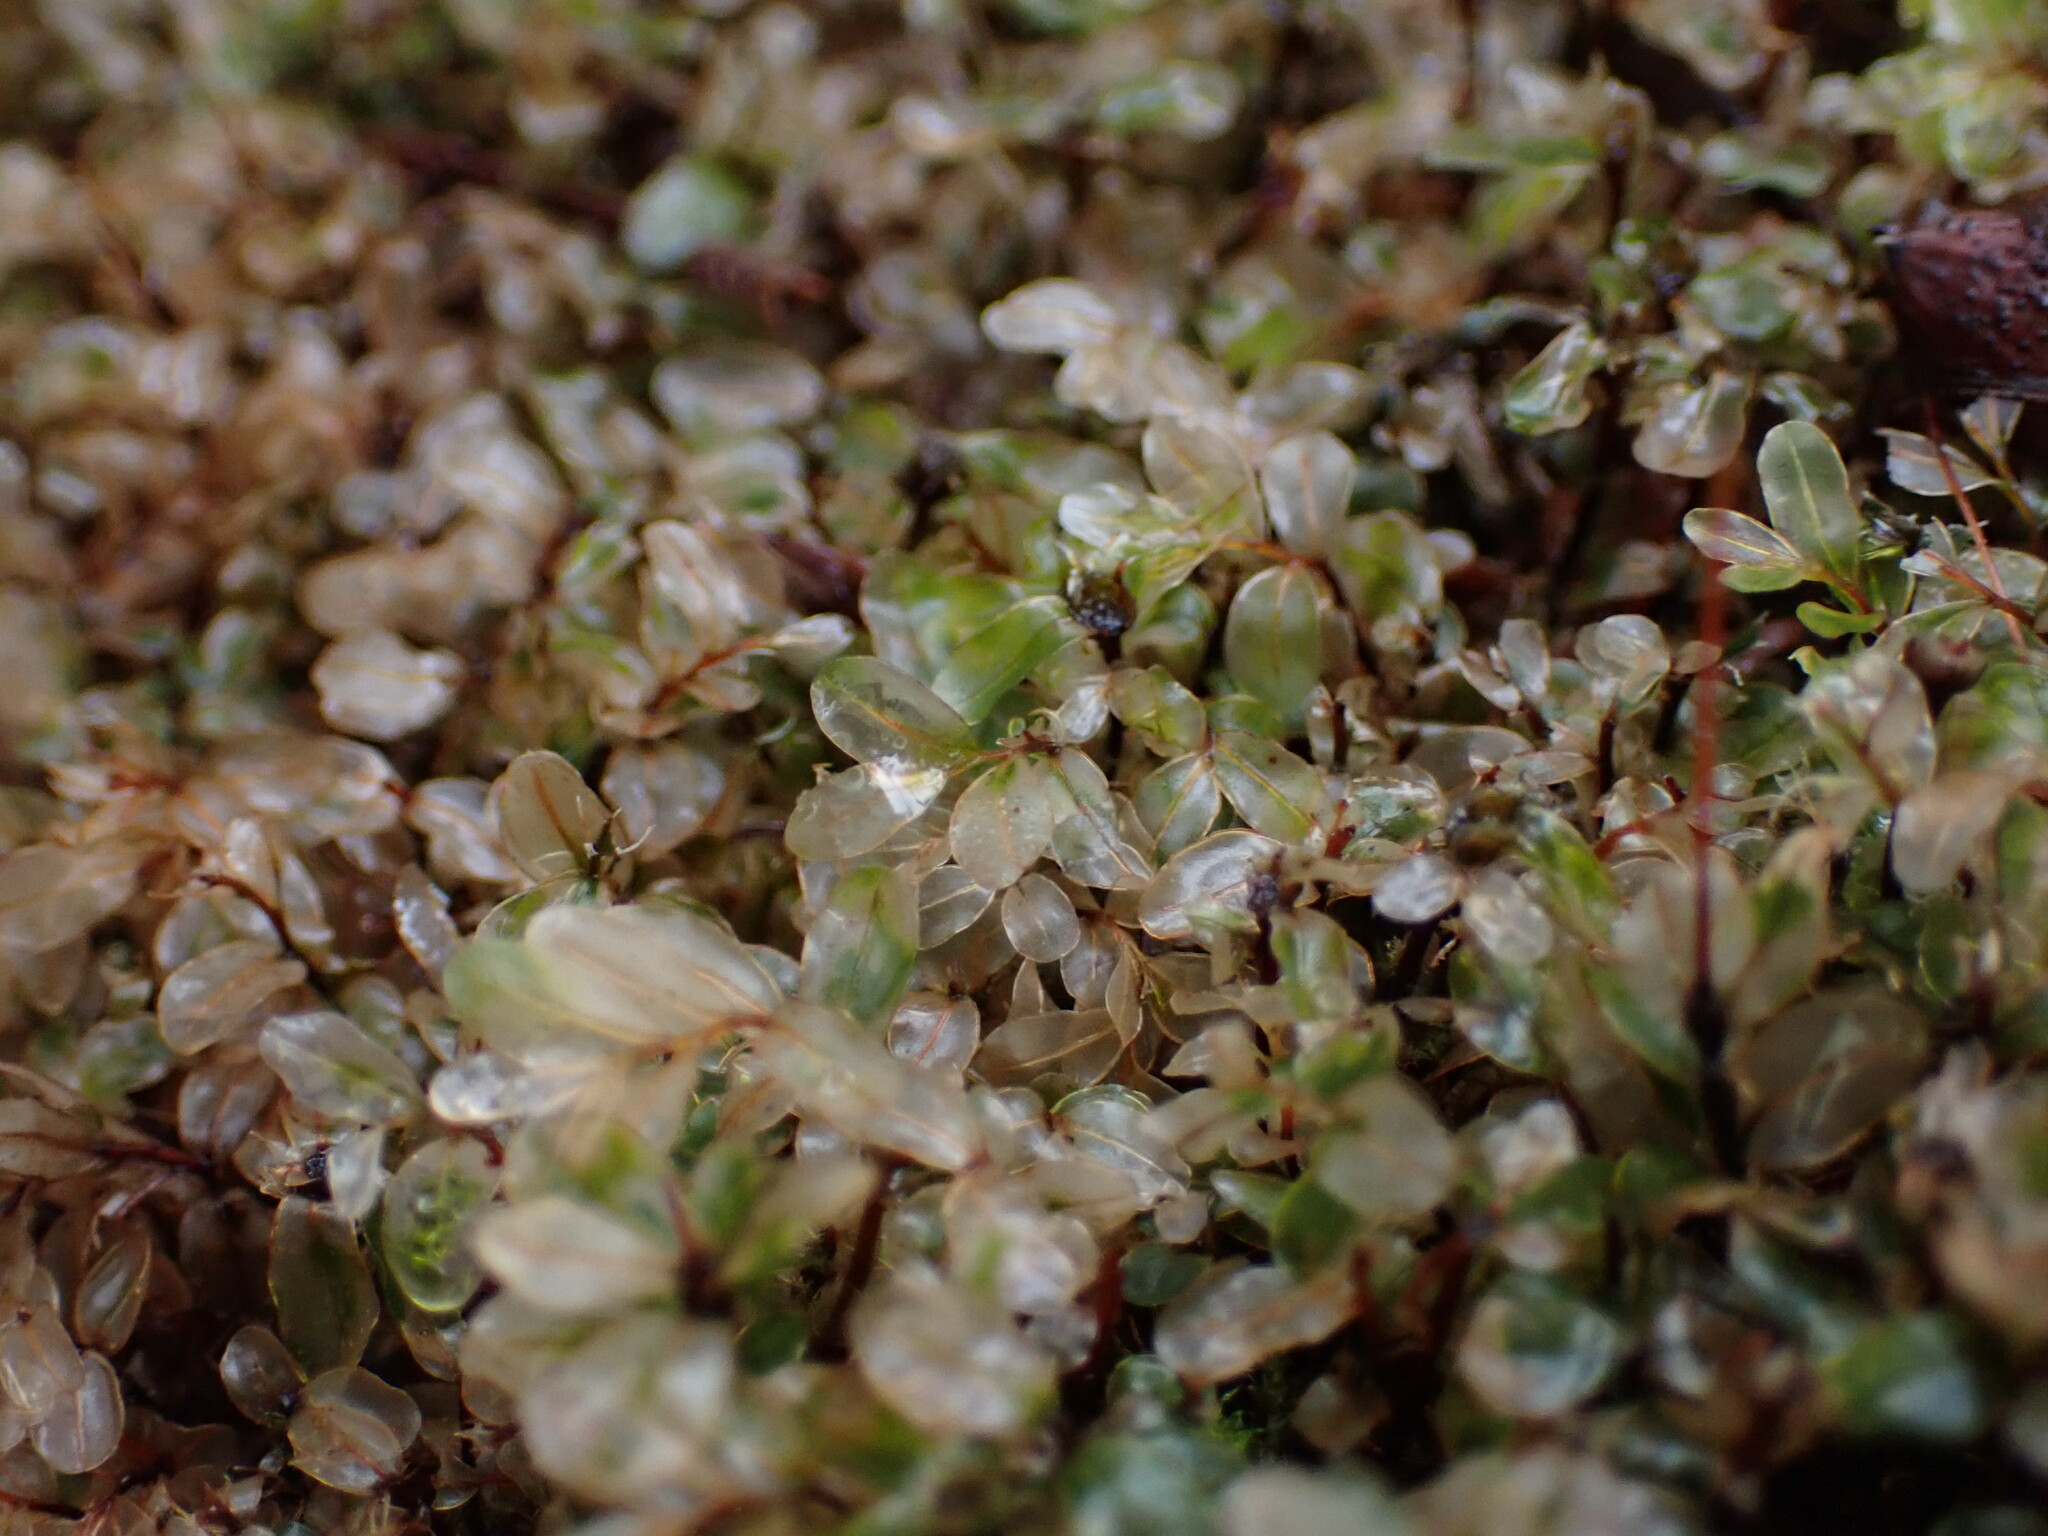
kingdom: Plantae
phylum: Bryophyta
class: Bryopsida
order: Bryales
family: Mniaceae
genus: Rhizomnium
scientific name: Rhizomnium glabrescens
